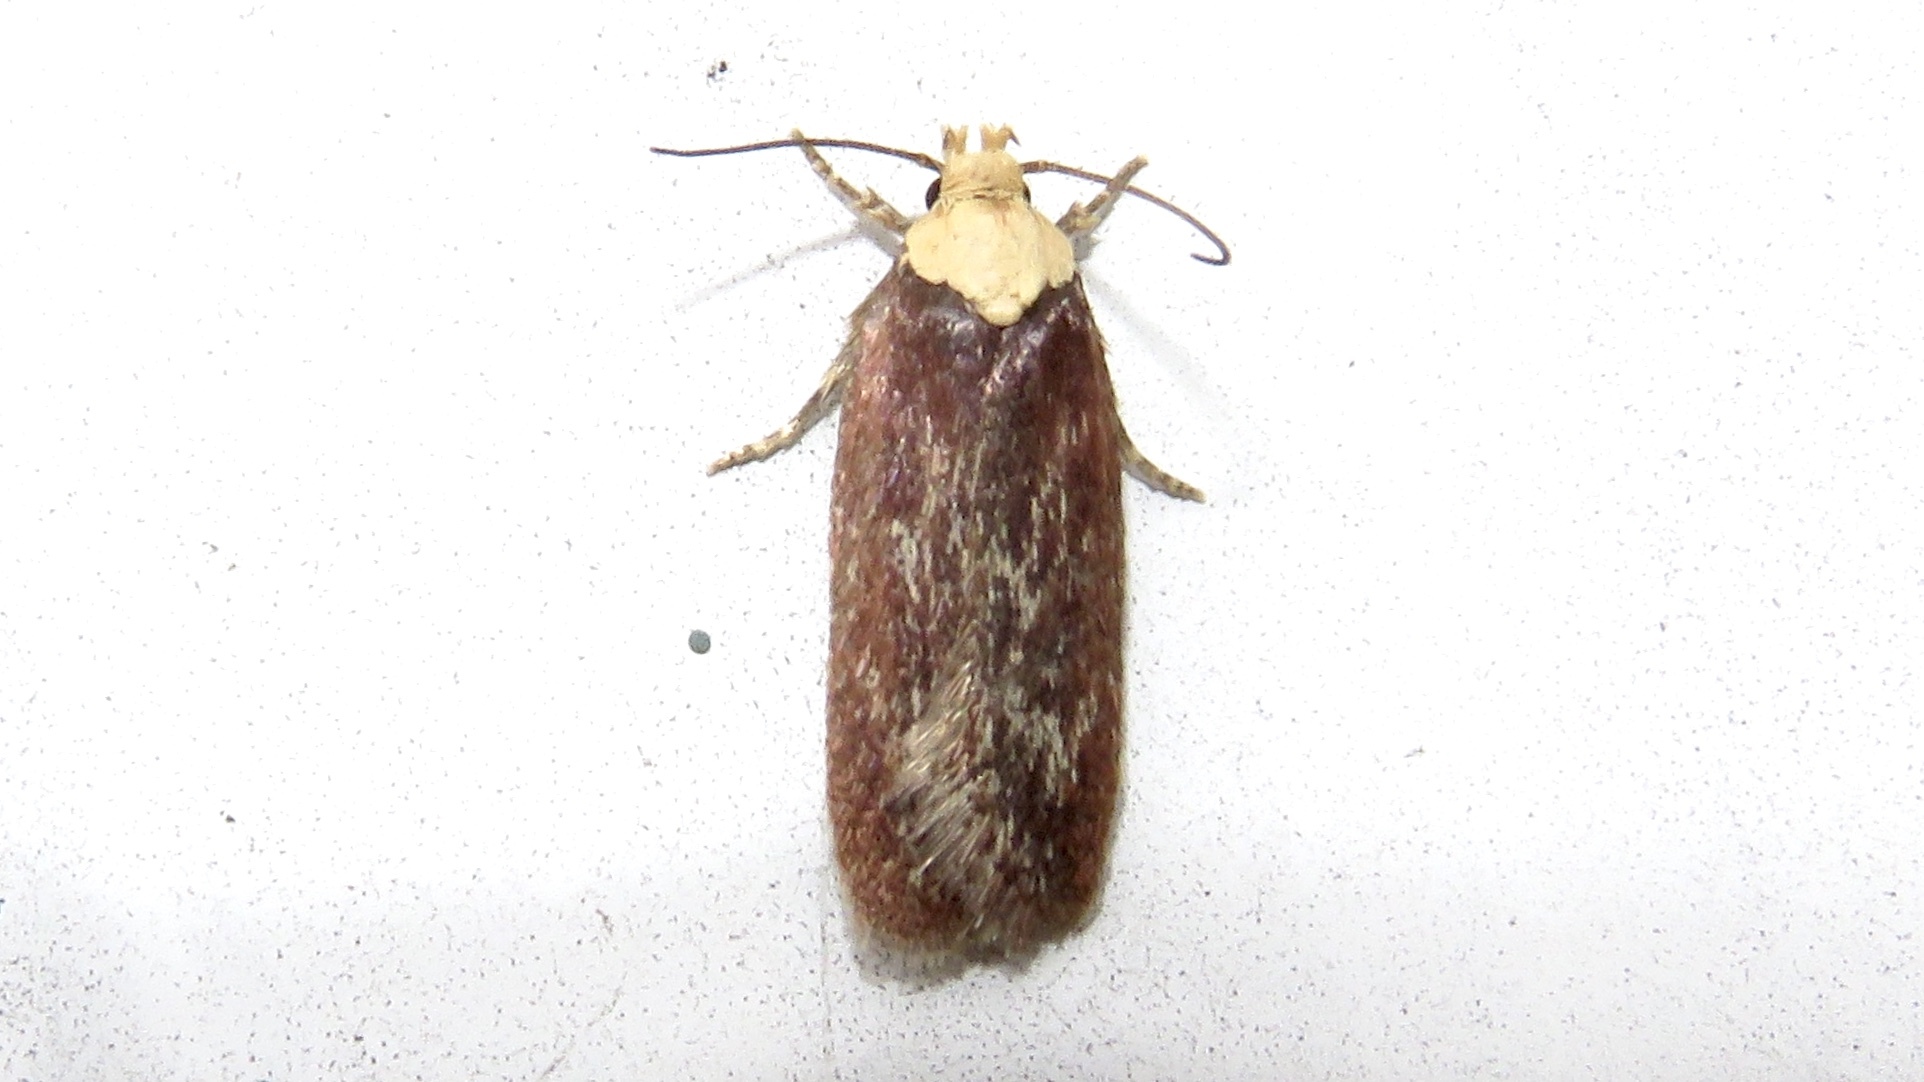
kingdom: Animalia
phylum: Arthropoda
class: Insecta
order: Lepidoptera
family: Depressariidae
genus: Depressaria
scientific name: Depressaria depressana
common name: Lost flat-body
